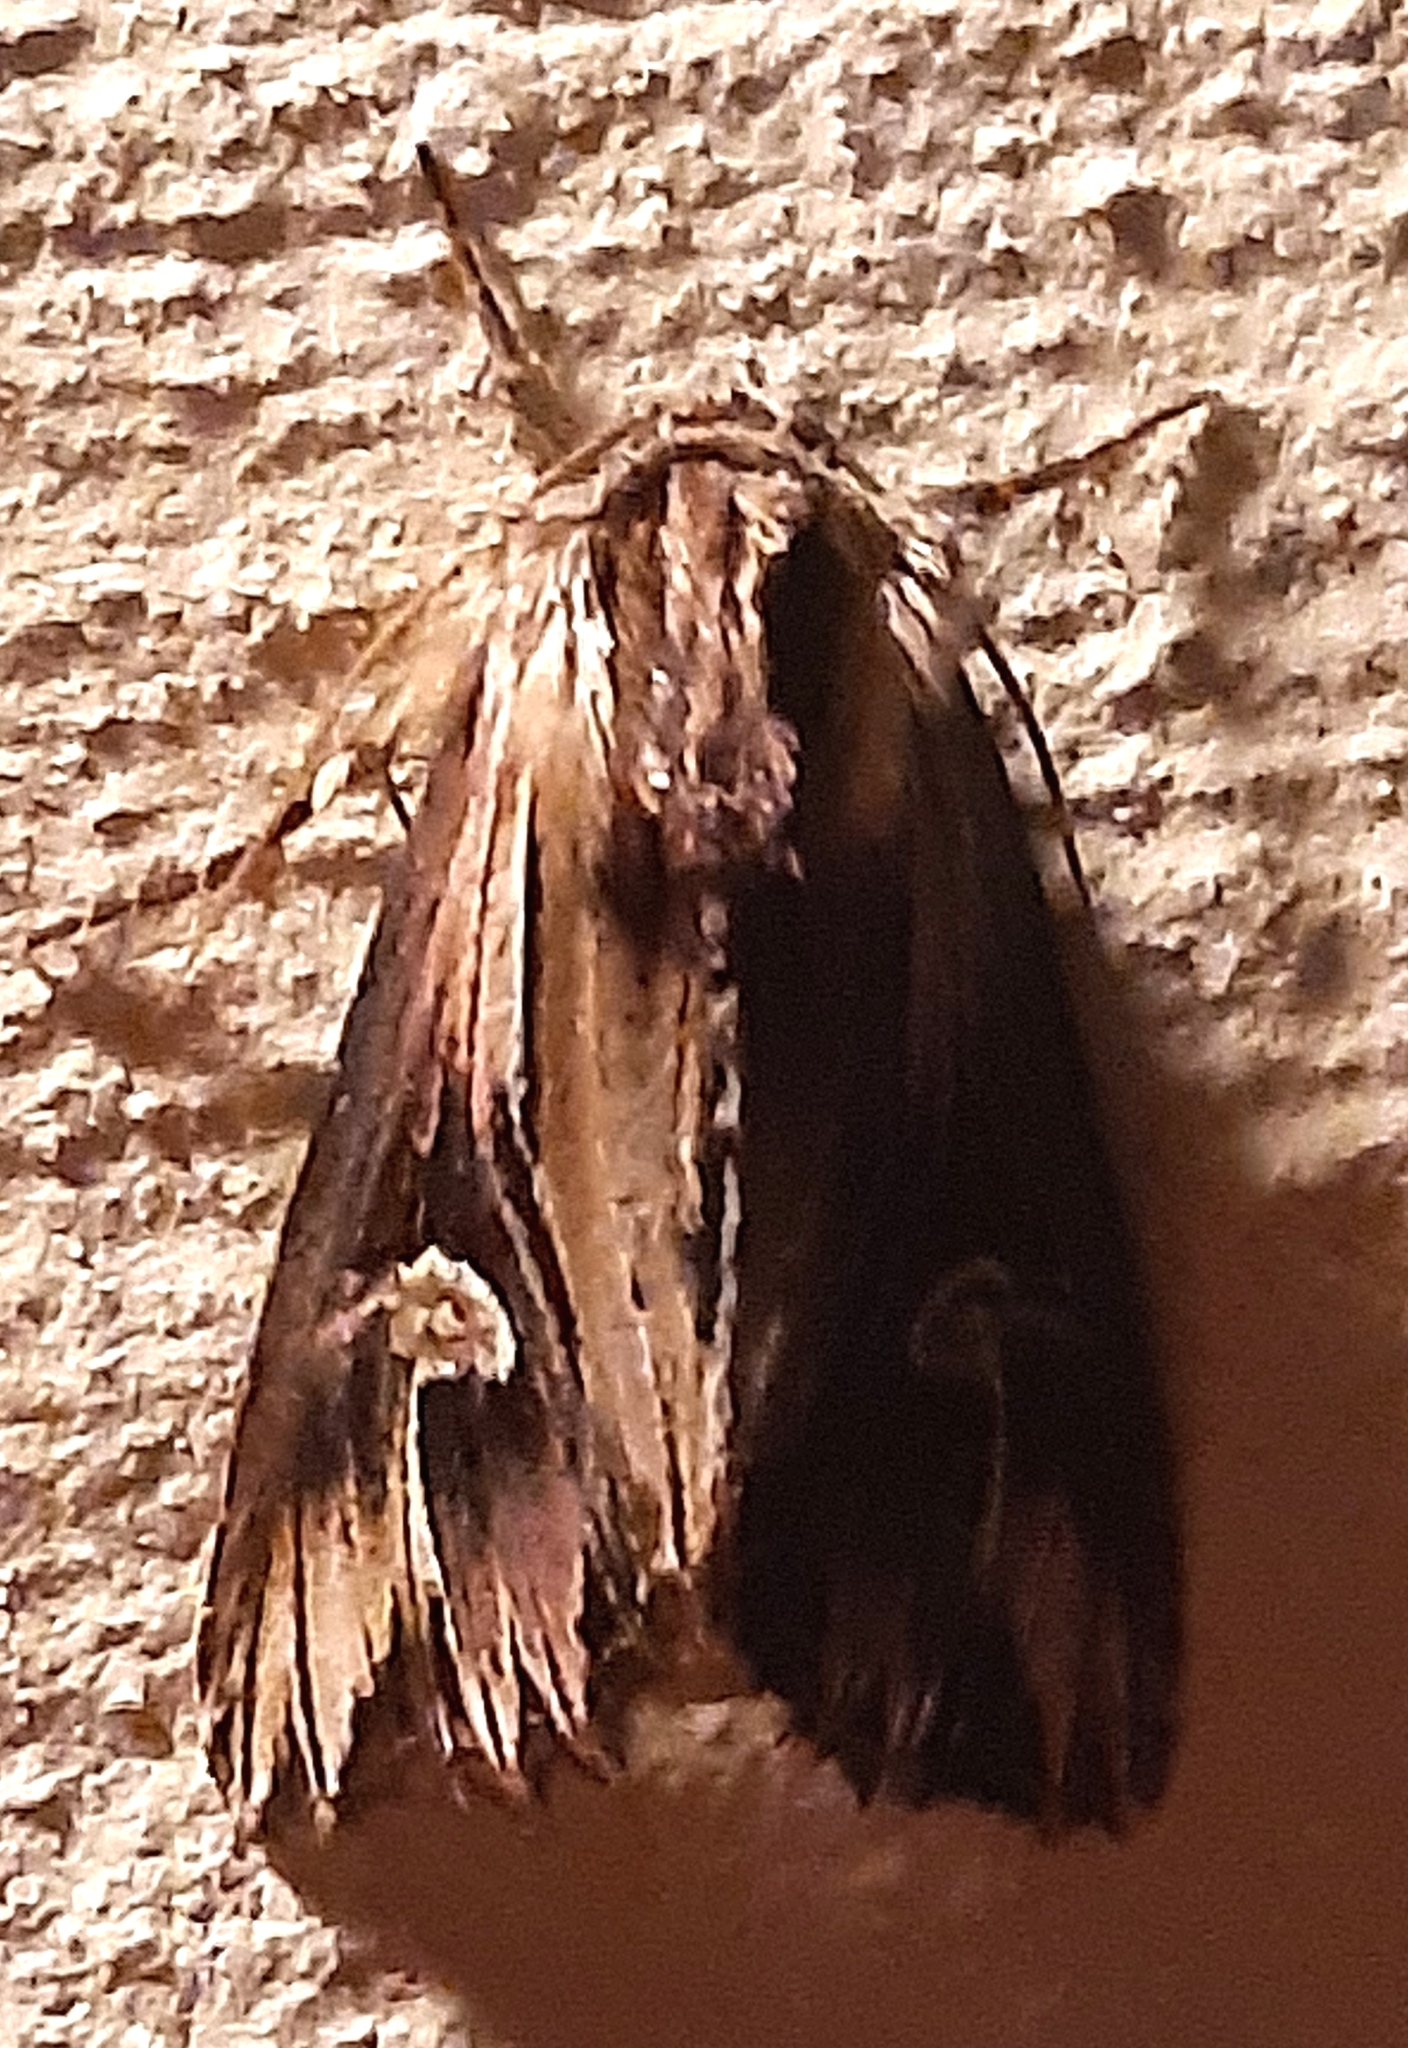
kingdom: Animalia
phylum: Arthropoda
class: Insecta
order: Lepidoptera
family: Noctuidae
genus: Actinotia
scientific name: Actinotia polyodon
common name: Purple cloud
